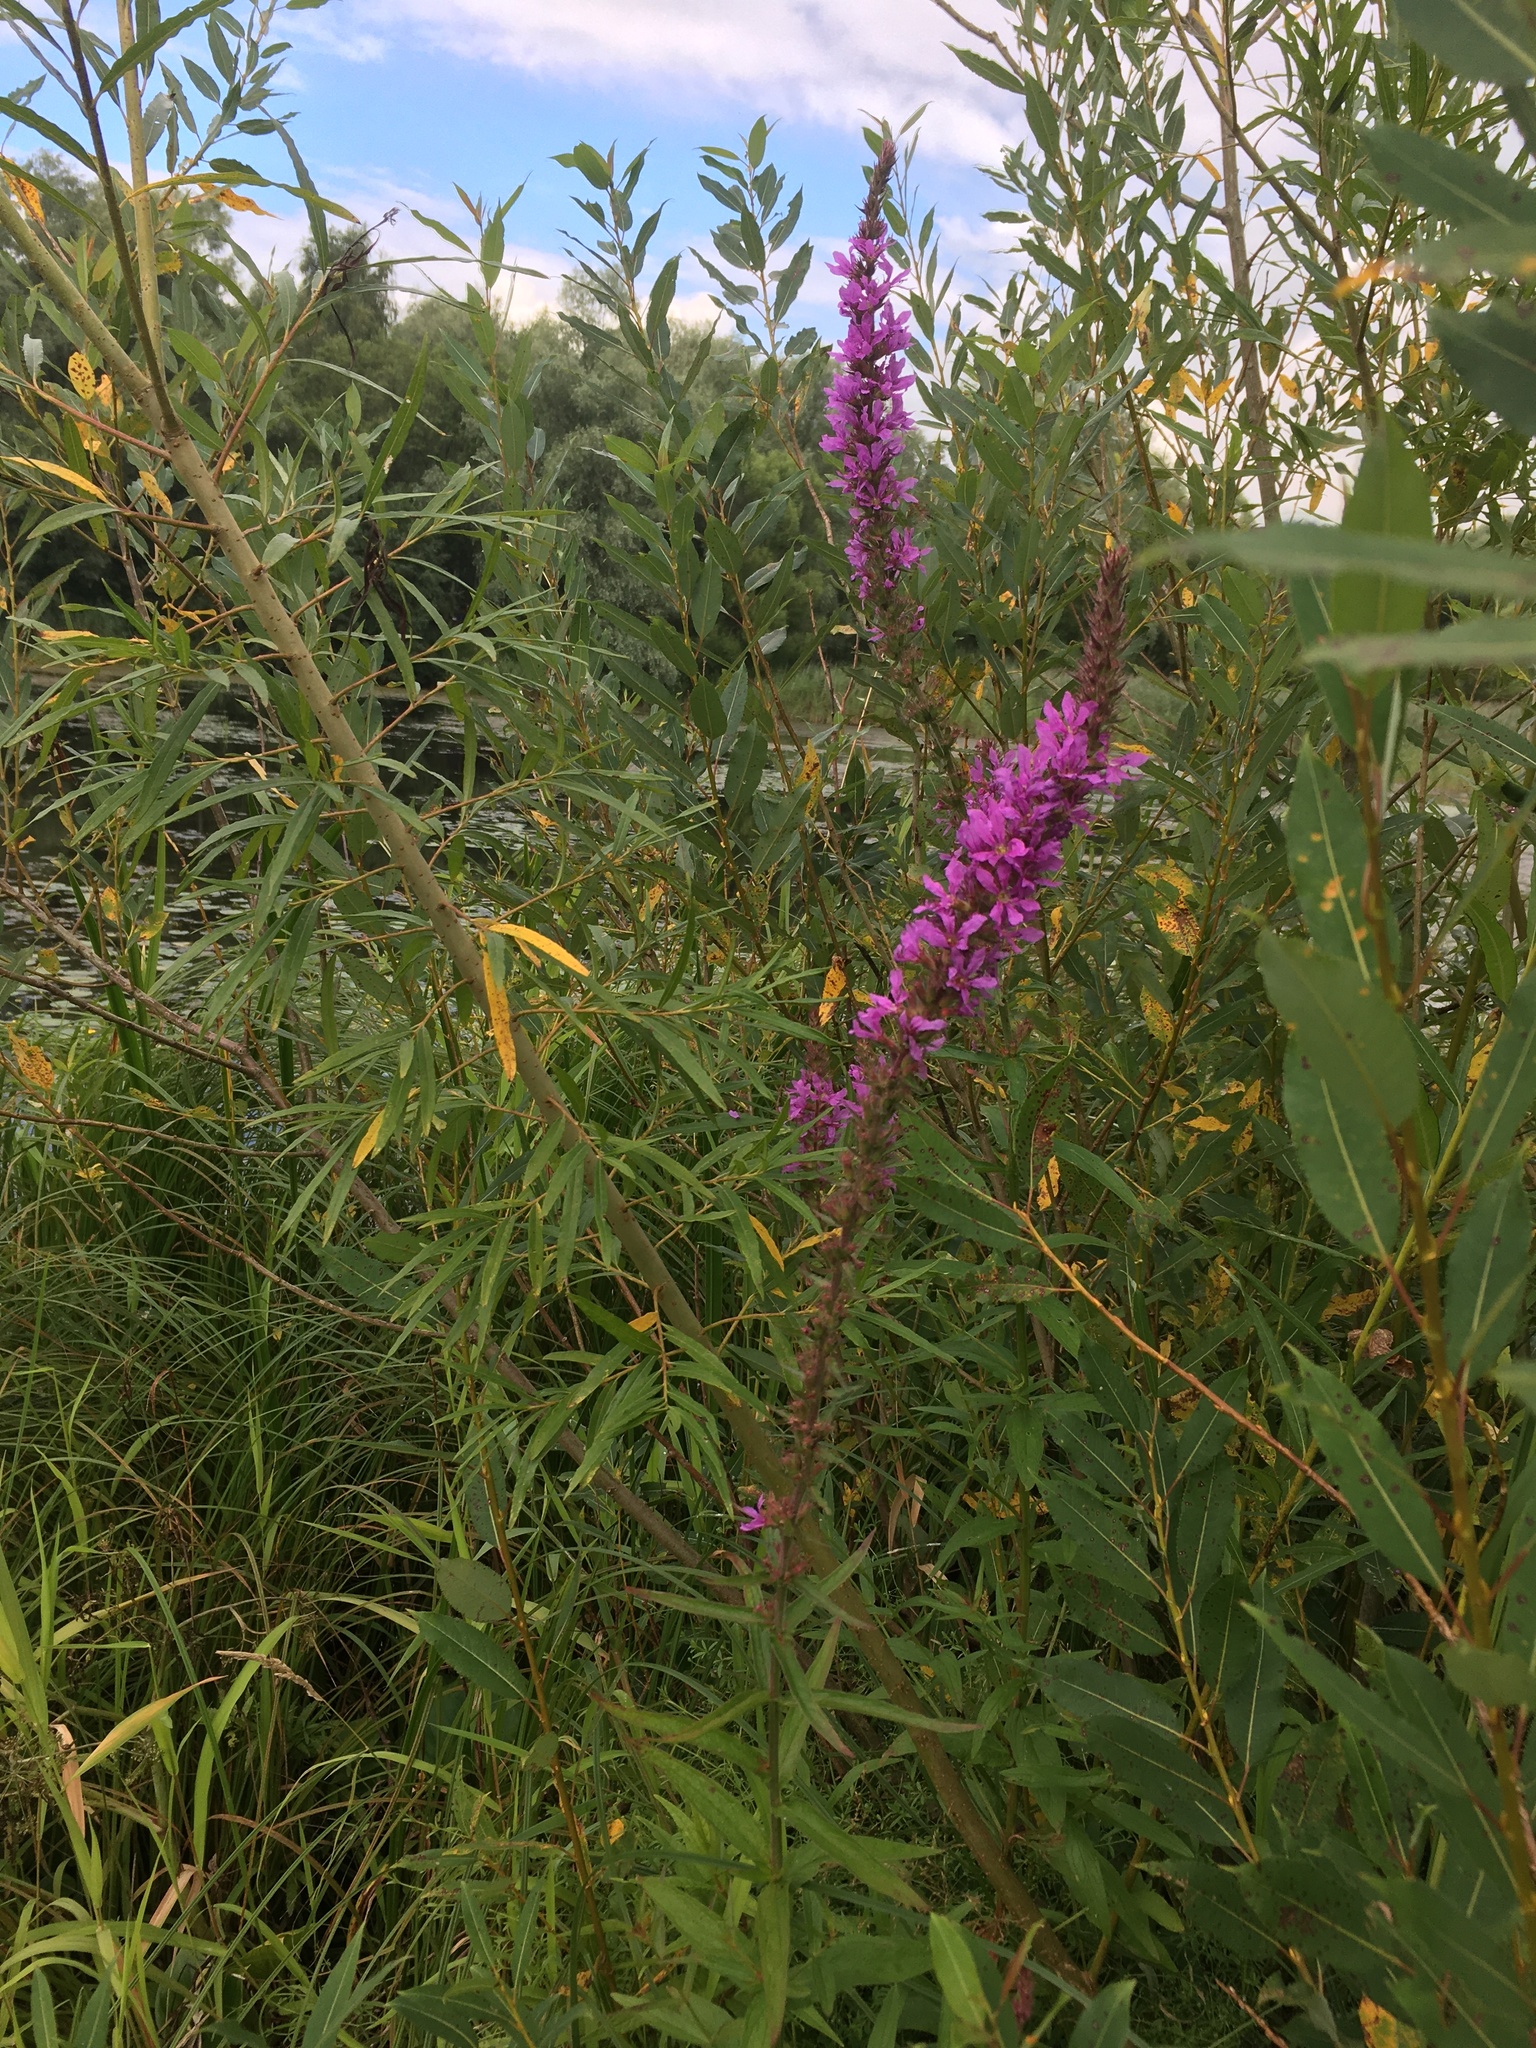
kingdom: Plantae
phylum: Tracheophyta
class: Magnoliopsida
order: Myrtales
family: Lythraceae
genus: Lythrum
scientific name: Lythrum salicaria
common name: Purple loosestrife
